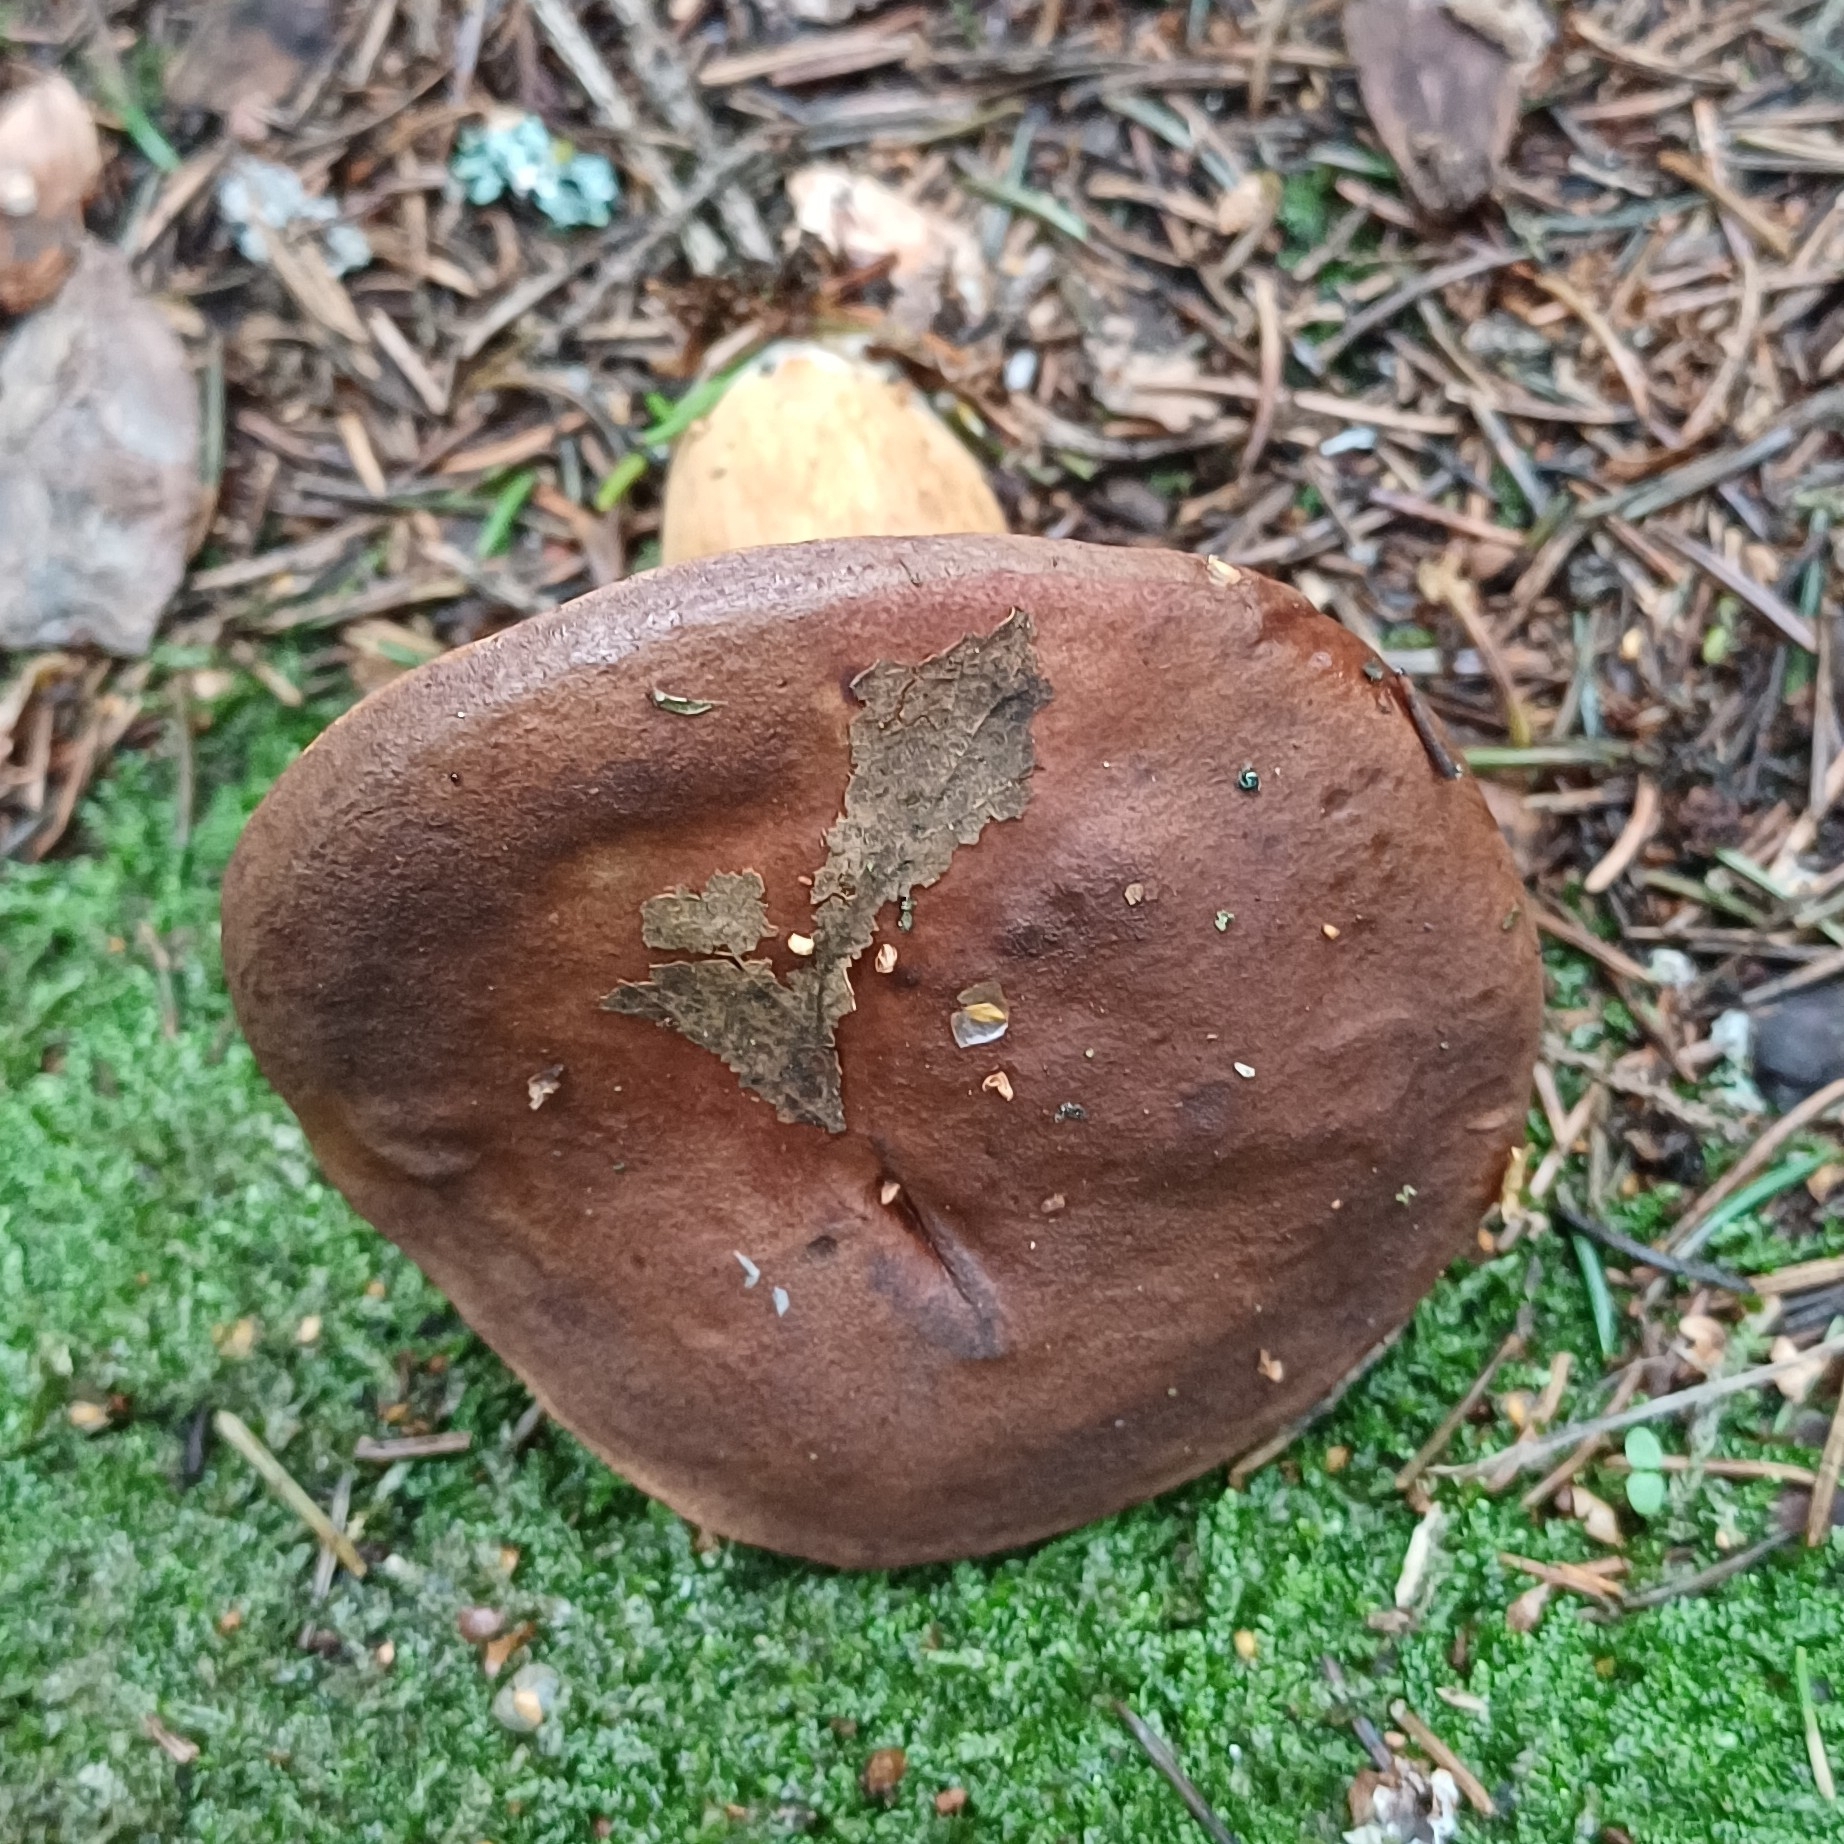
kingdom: Fungi
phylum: Basidiomycota
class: Agaricomycetes
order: Boletales
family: Boletaceae
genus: Imleria
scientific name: Imleria badia
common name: Bay bolete
